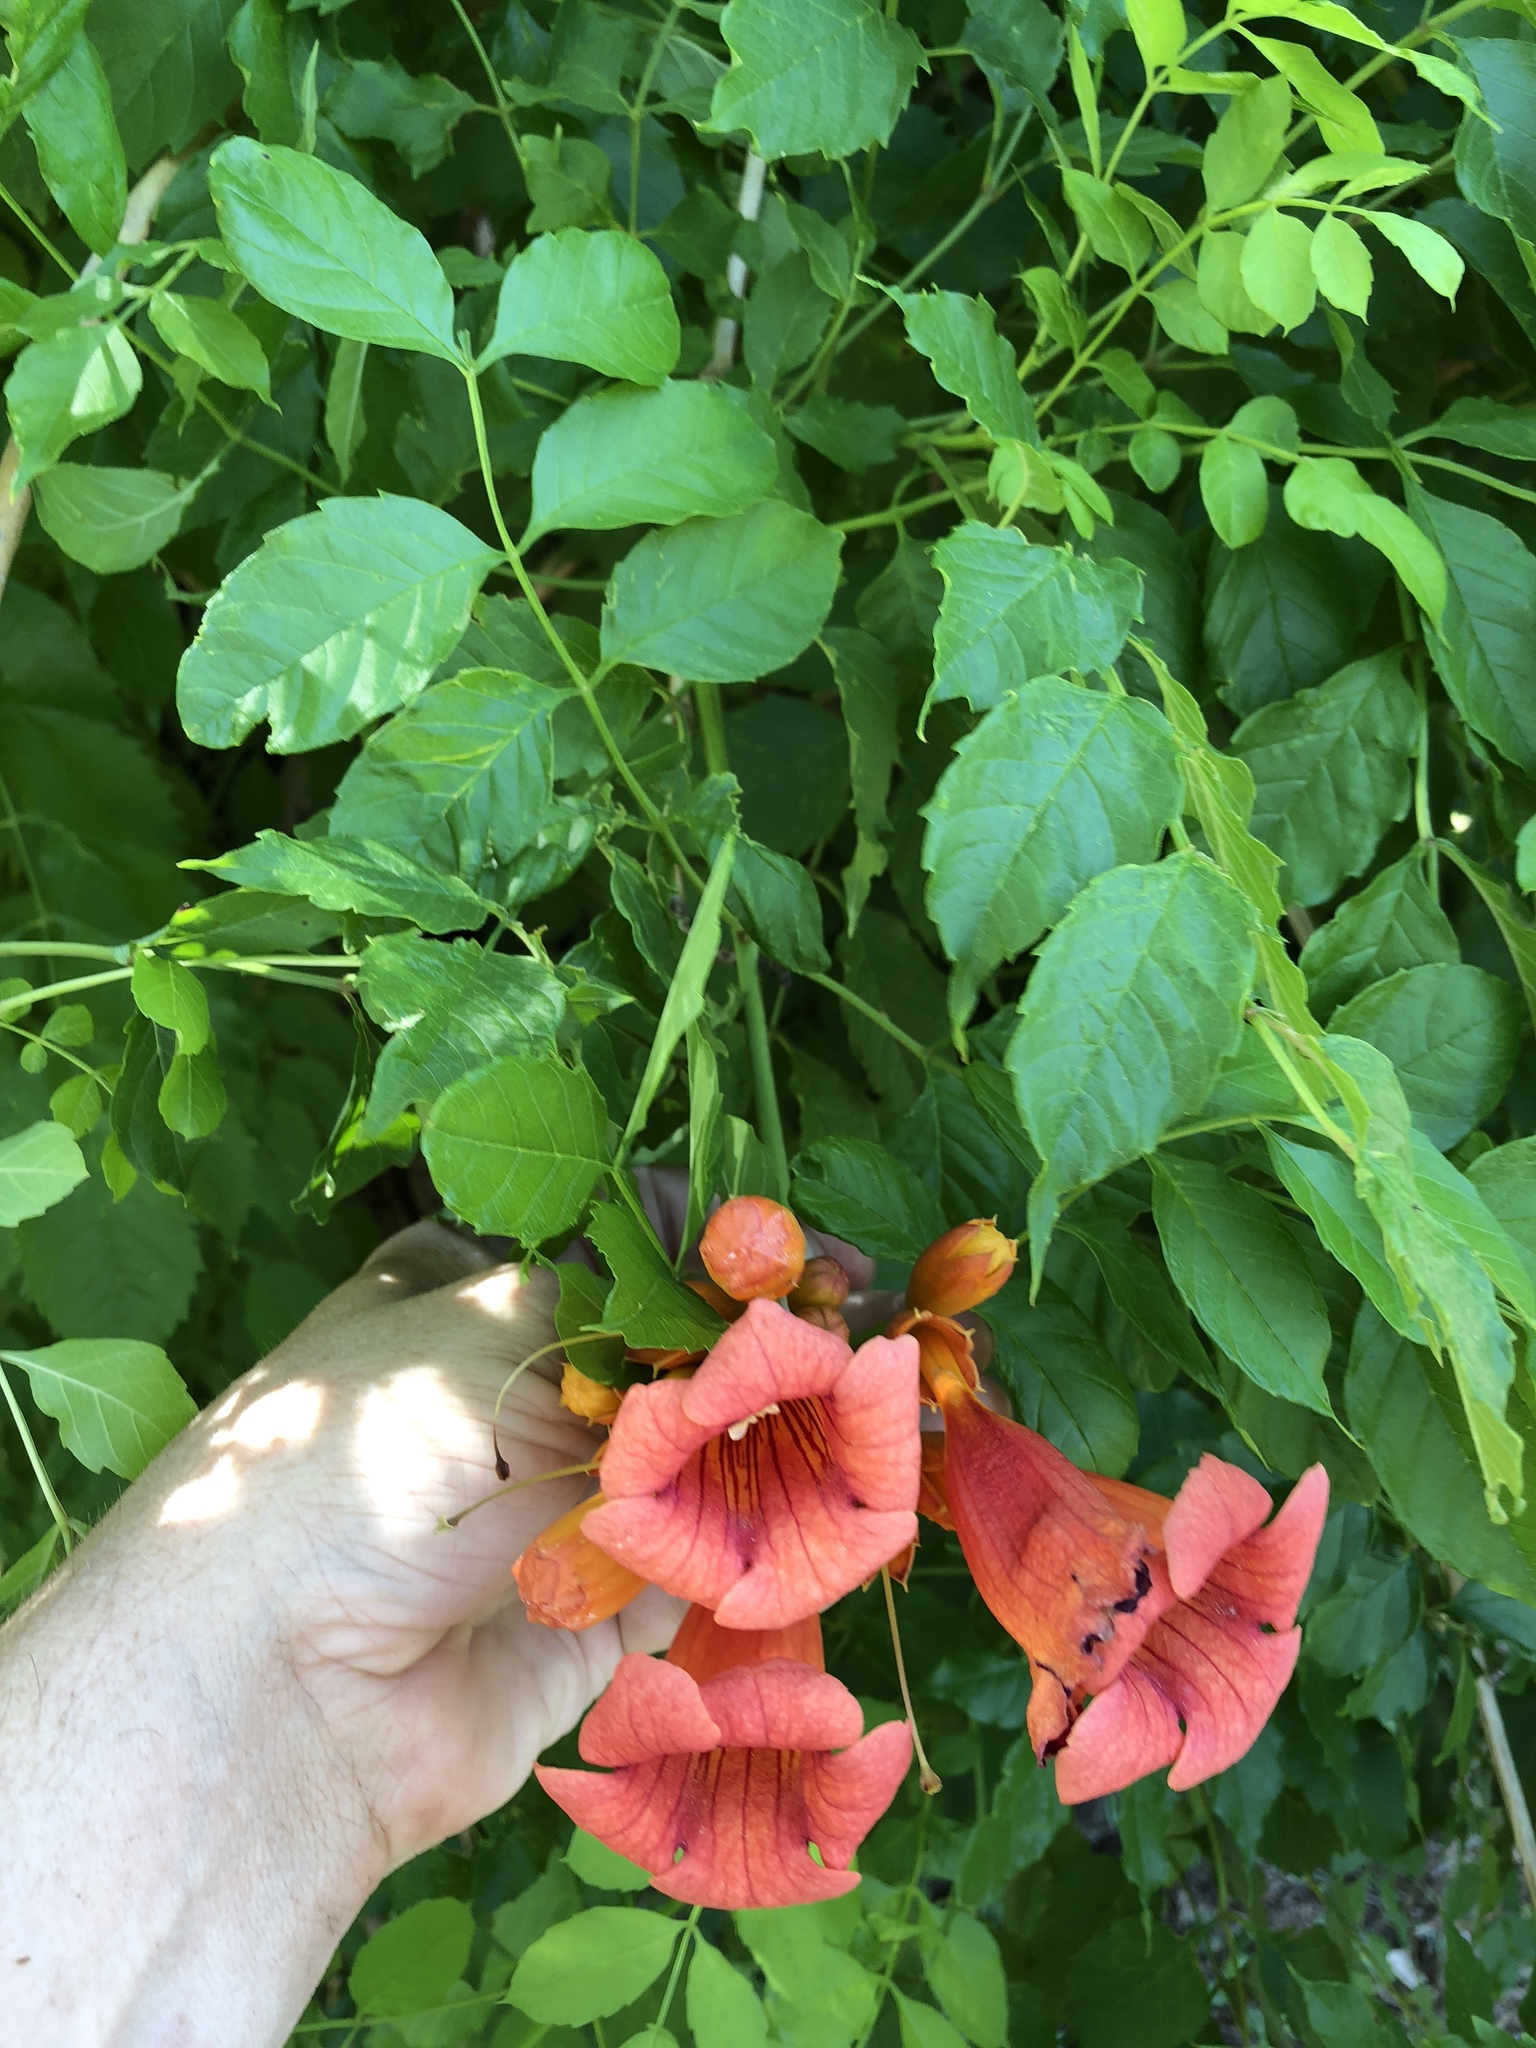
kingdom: Plantae
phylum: Tracheophyta
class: Magnoliopsida
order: Lamiales
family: Bignoniaceae
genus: Campsis
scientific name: Campsis radicans
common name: Trumpet-creeper
